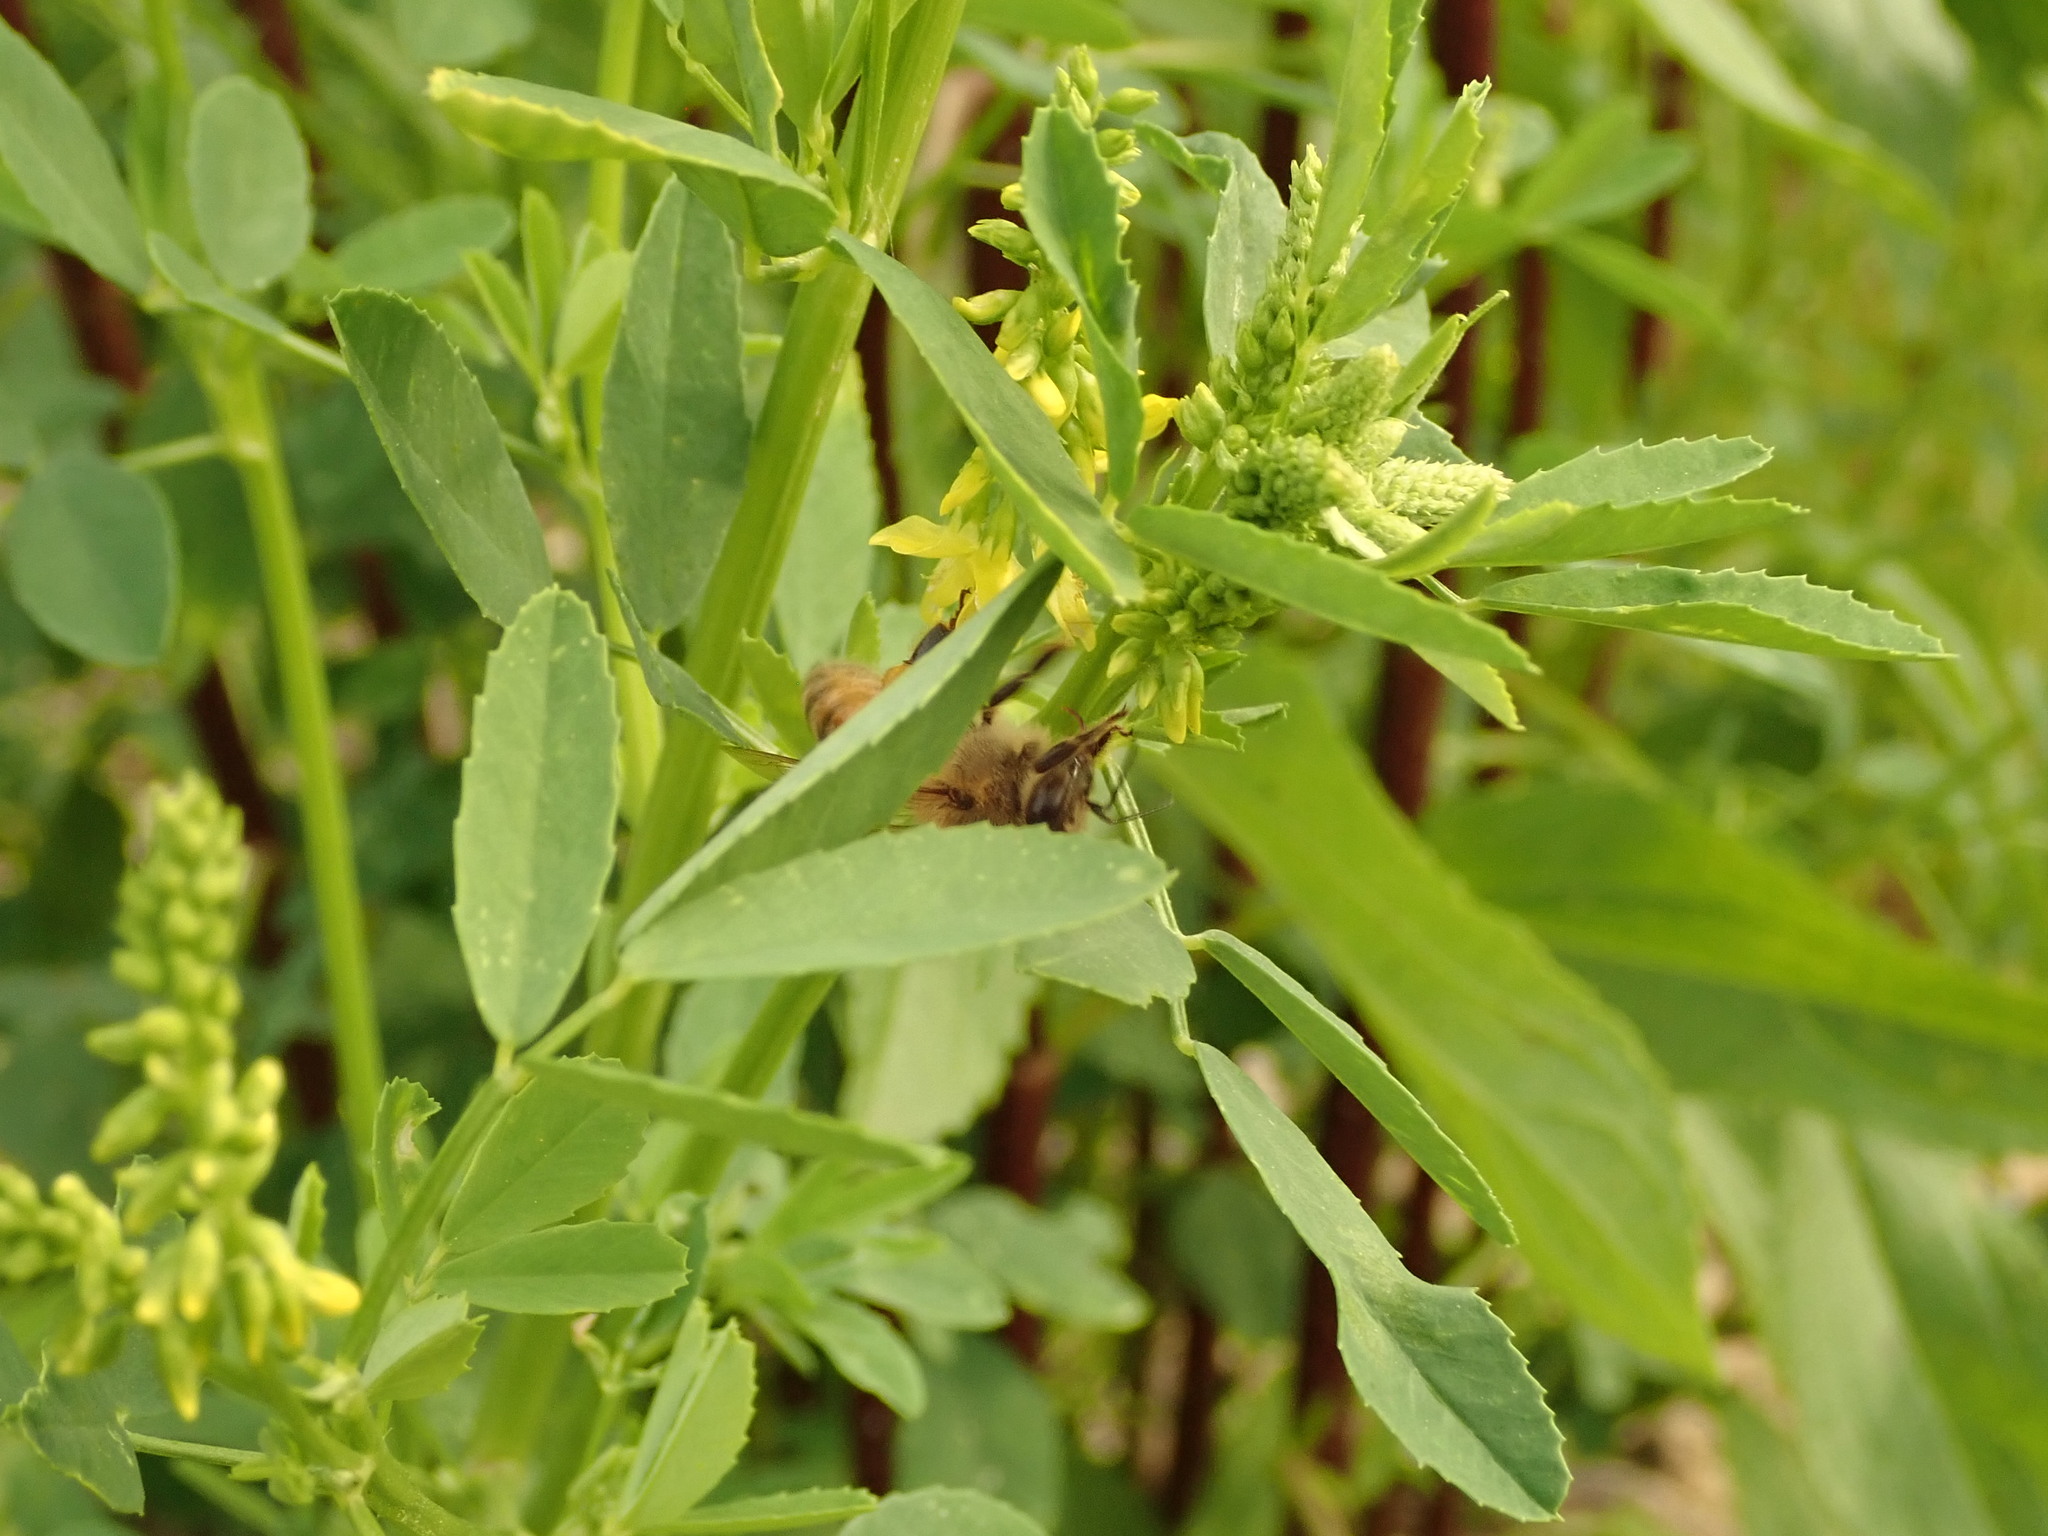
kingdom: Animalia
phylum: Arthropoda
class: Insecta
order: Hymenoptera
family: Apidae
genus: Apis
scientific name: Apis mellifera
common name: Honey bee
